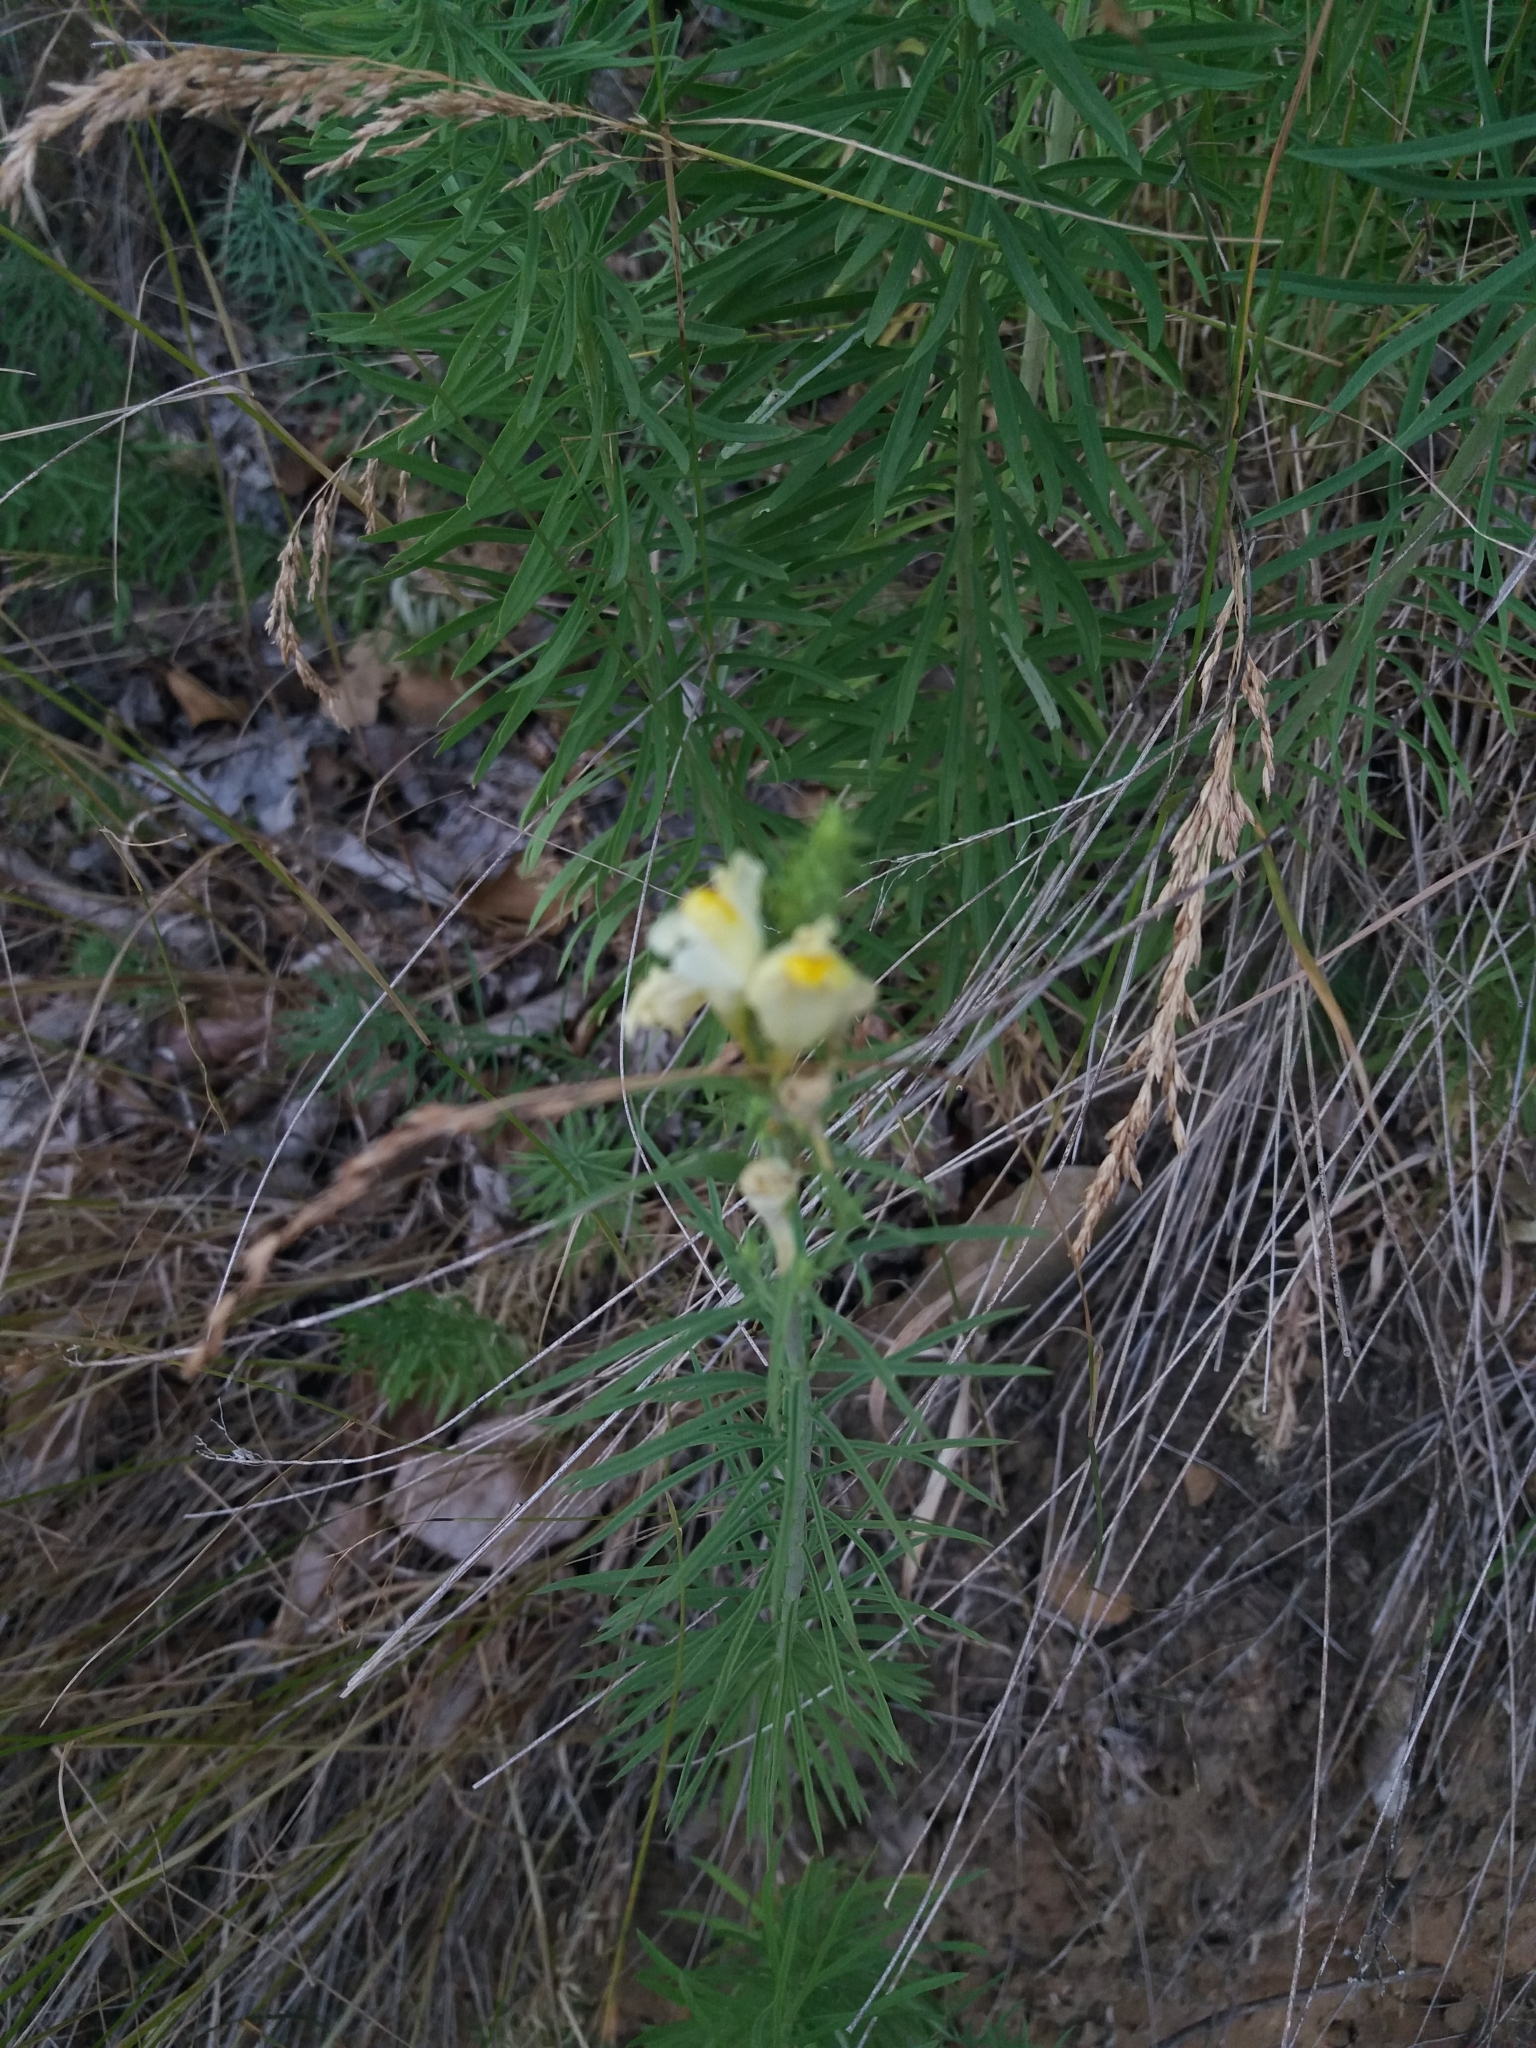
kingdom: Plantae
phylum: Tracheophyta
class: Magnoliopsida
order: Lamiales
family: Plantaginaceae
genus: Linaria
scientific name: Linaria vulgaris
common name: Butter and eggs
